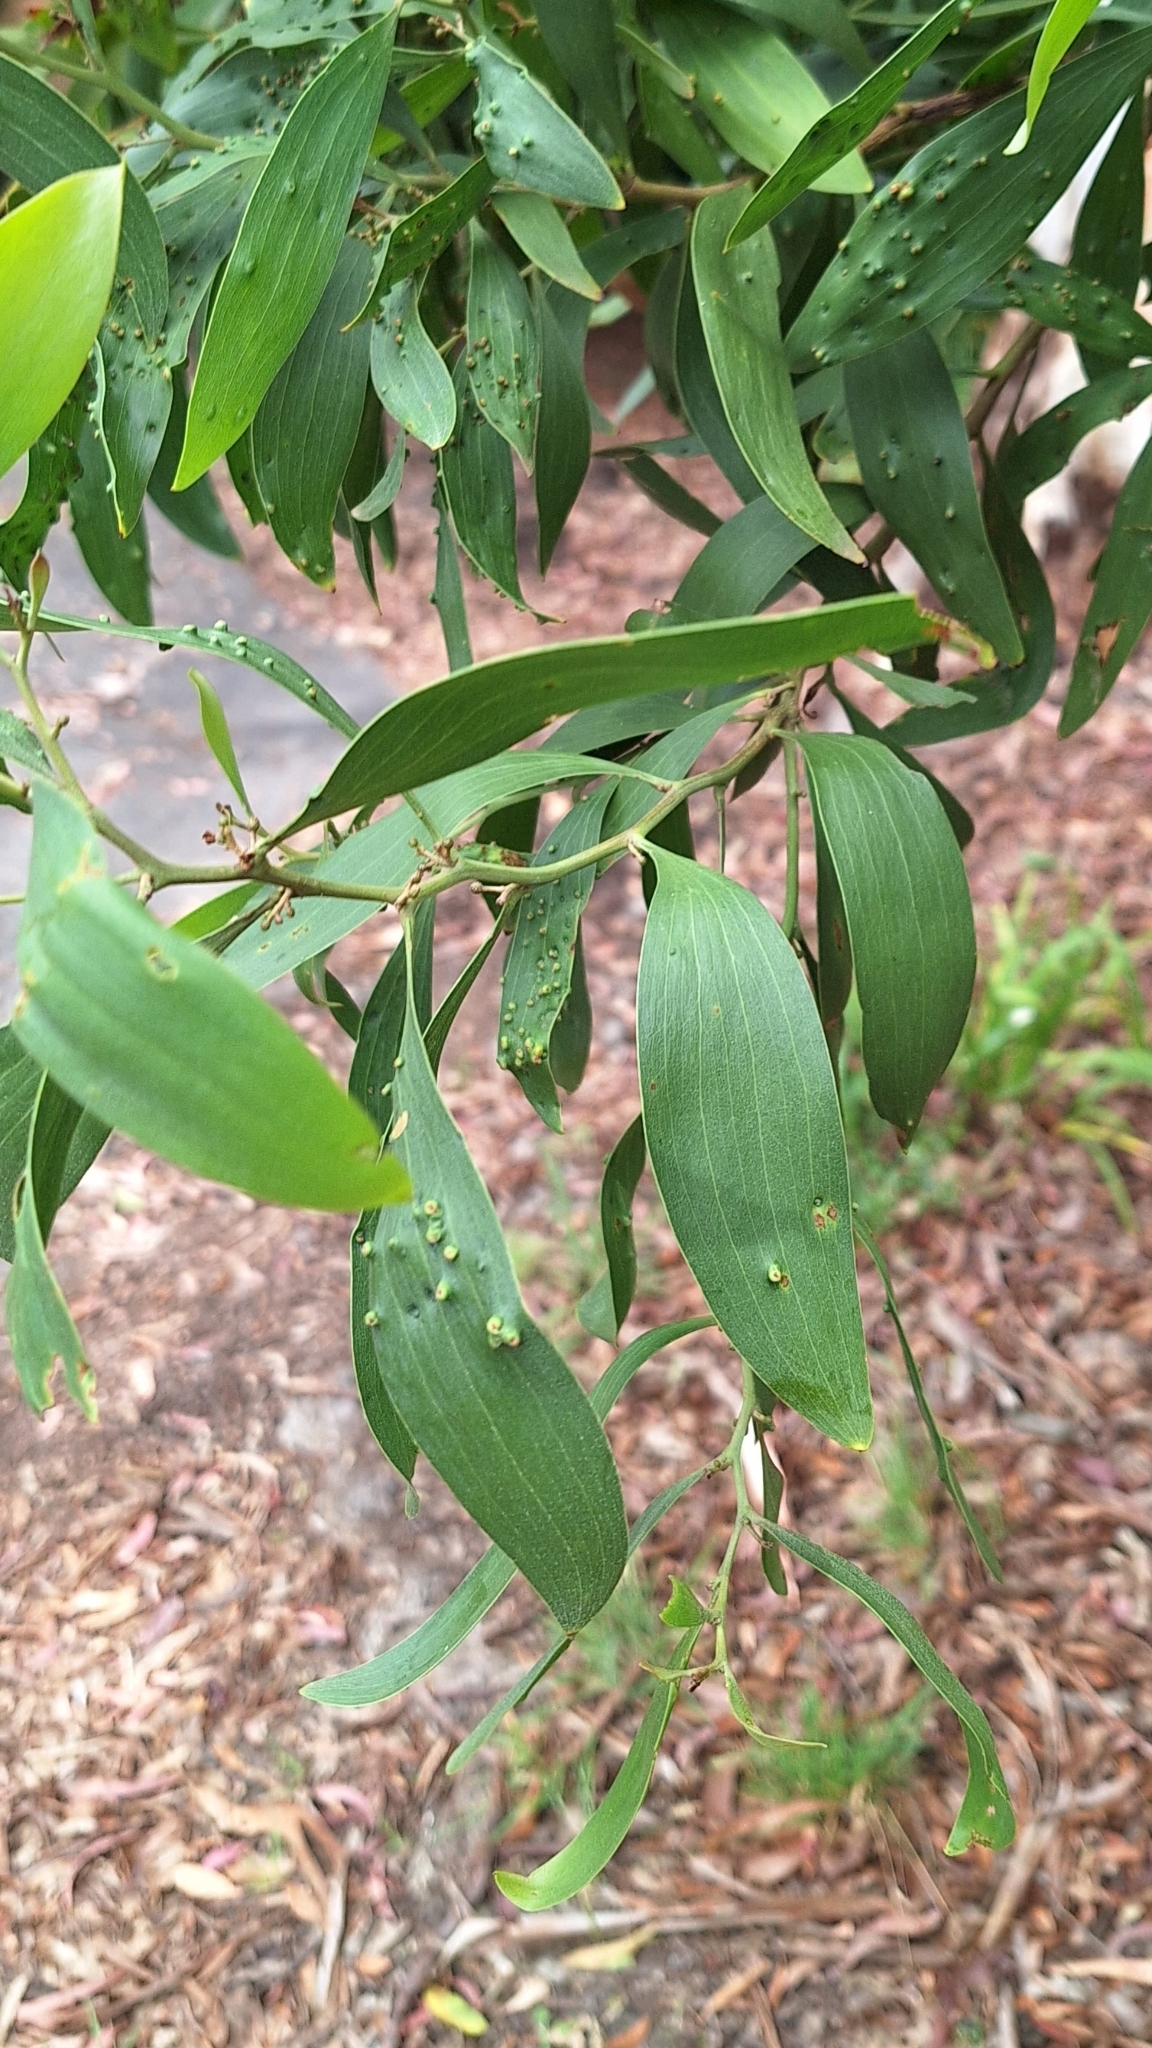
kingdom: Plantae
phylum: Tracheophyta
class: Magnoliopsida
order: Fabales
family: Fabaceae
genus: Acacia
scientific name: Acacia melanoxylon
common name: Blackwood
